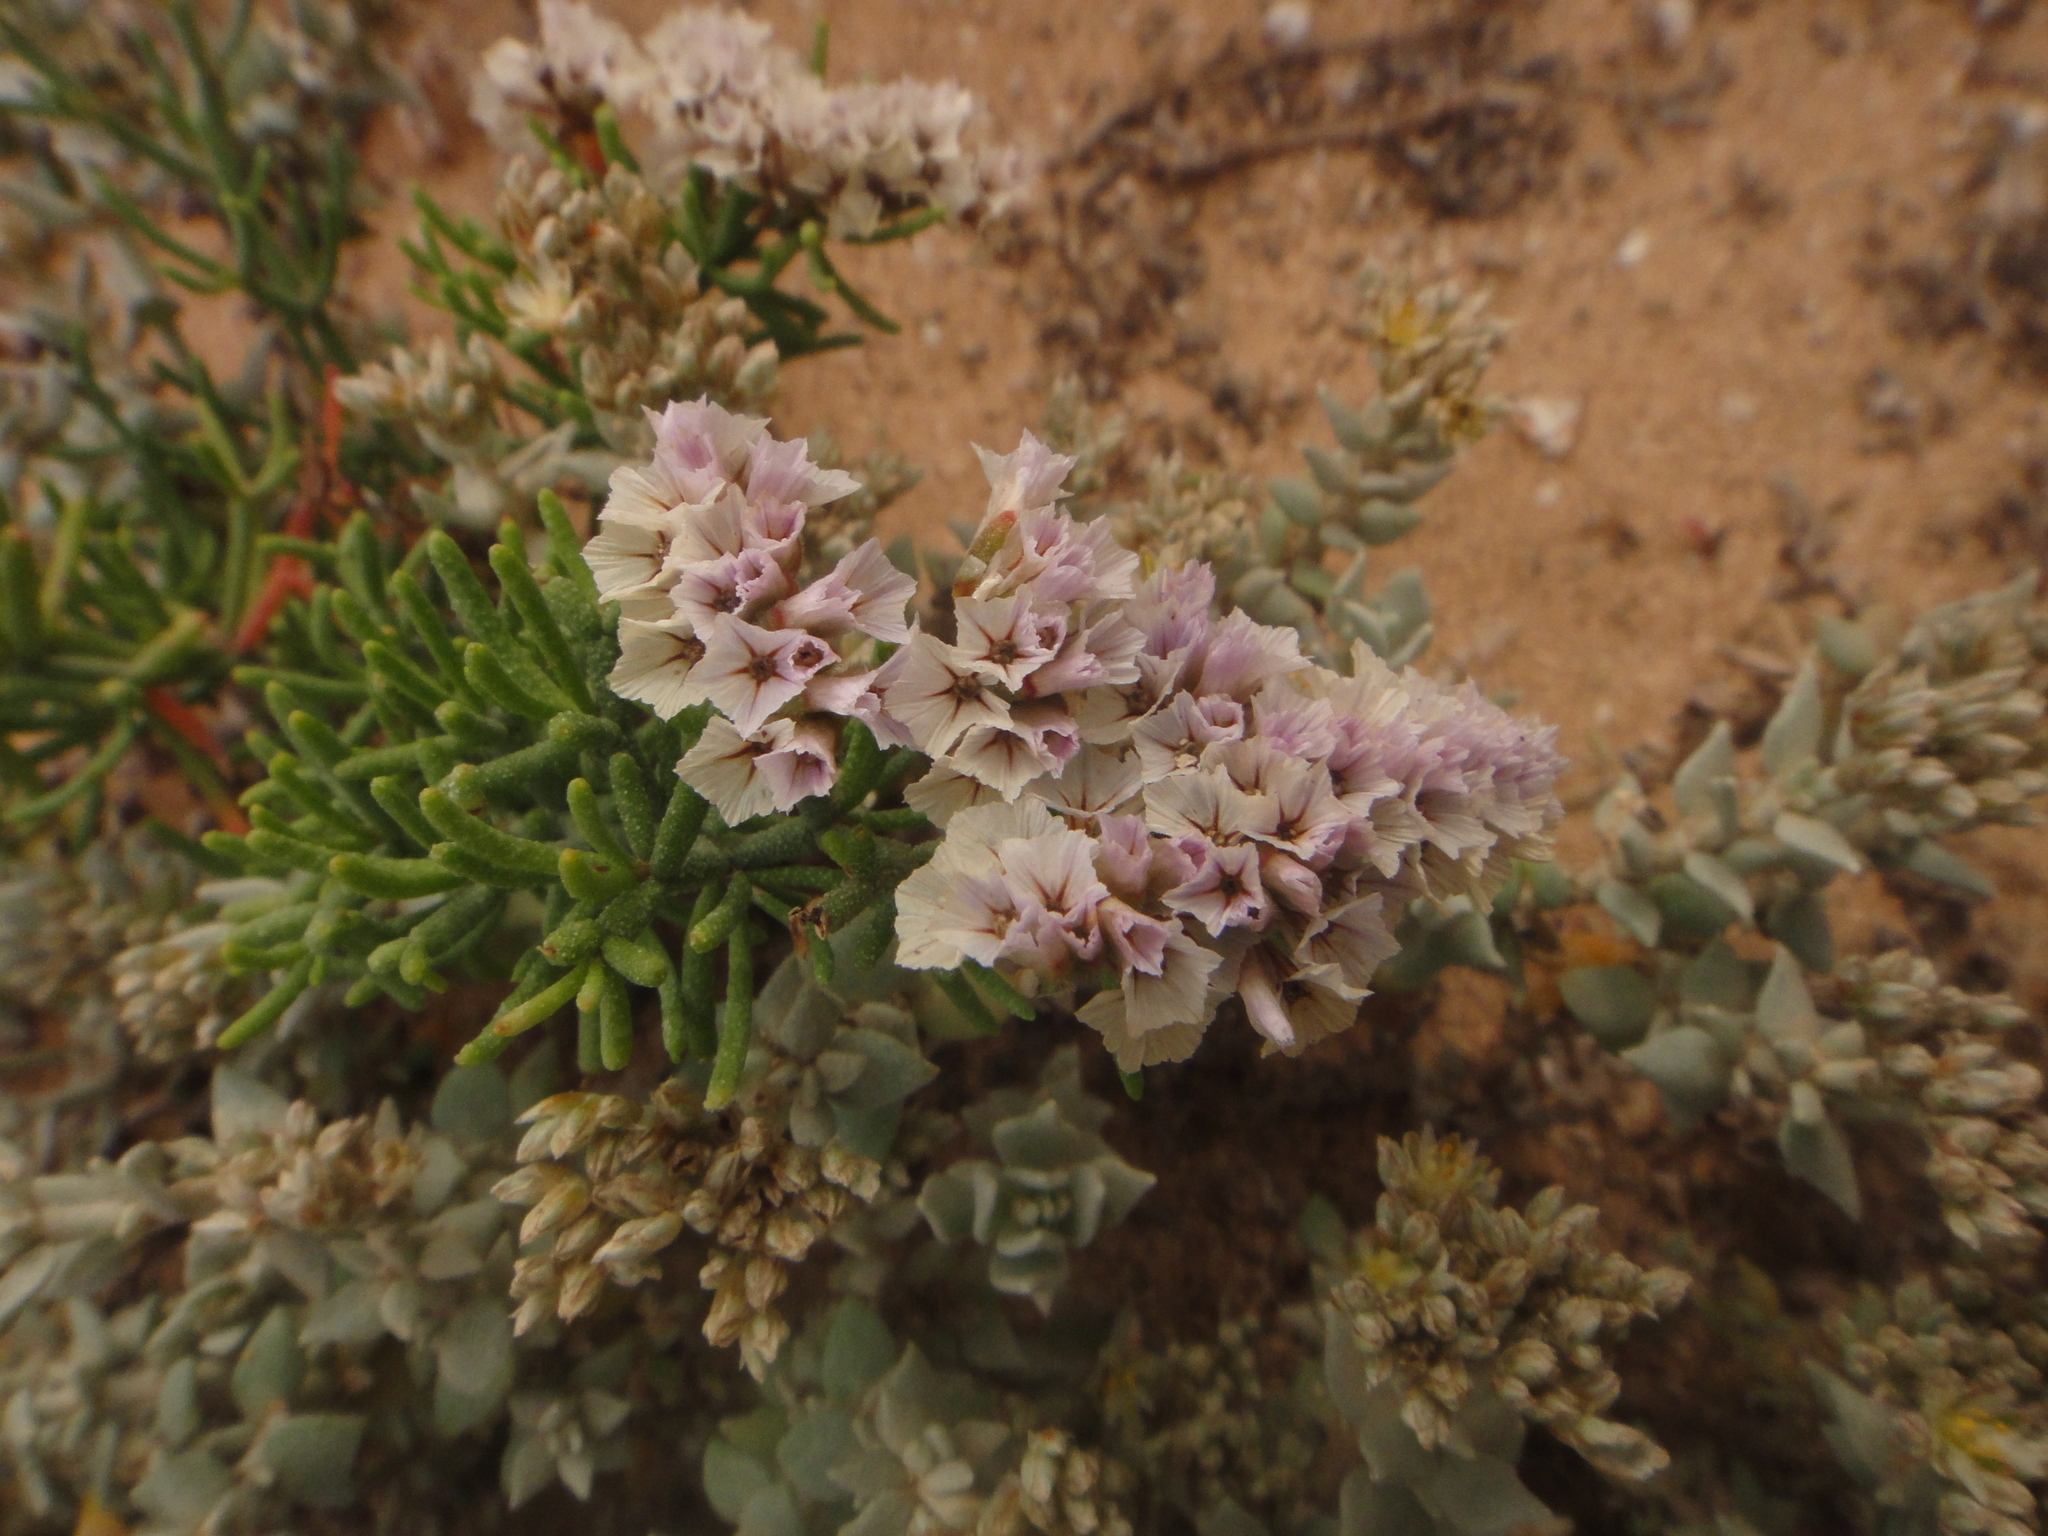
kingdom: Plantae
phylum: Tracheophyta
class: Magnoliopsida
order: Caryophyllales
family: Plumbaginaceae
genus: Limonium
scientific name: Limonium papillatum
